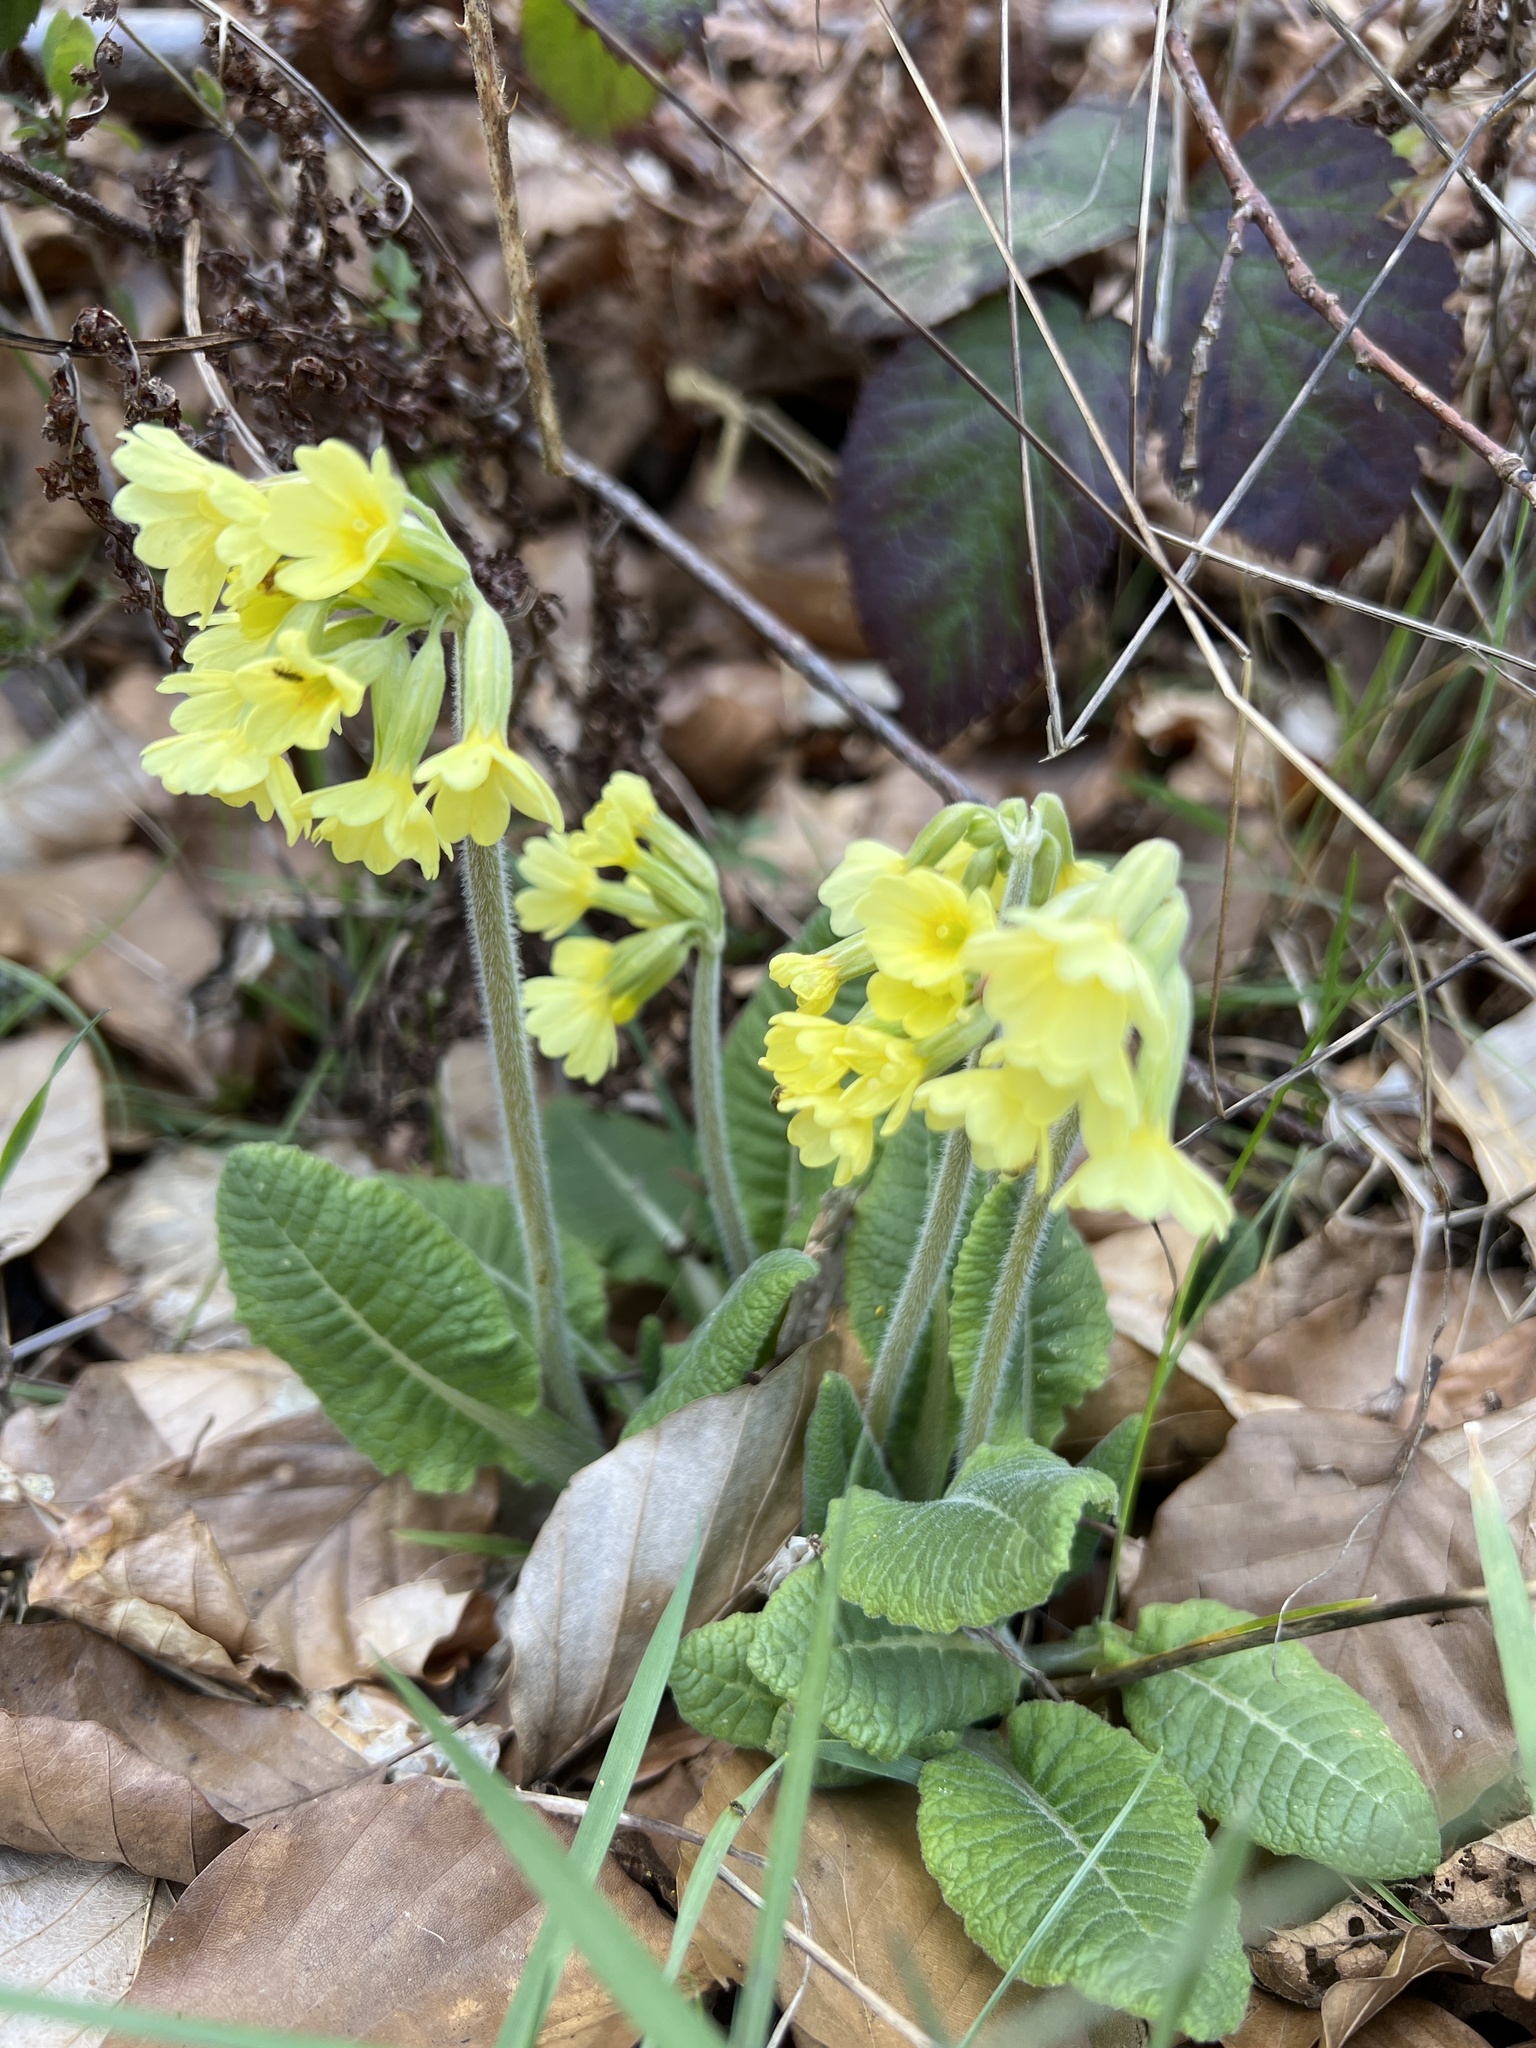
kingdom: Plantae
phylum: Tracheophyta
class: Magnoliopsida
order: Ericales
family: Primulaceae
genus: Primula
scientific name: Primula elatior
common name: Oxlip
